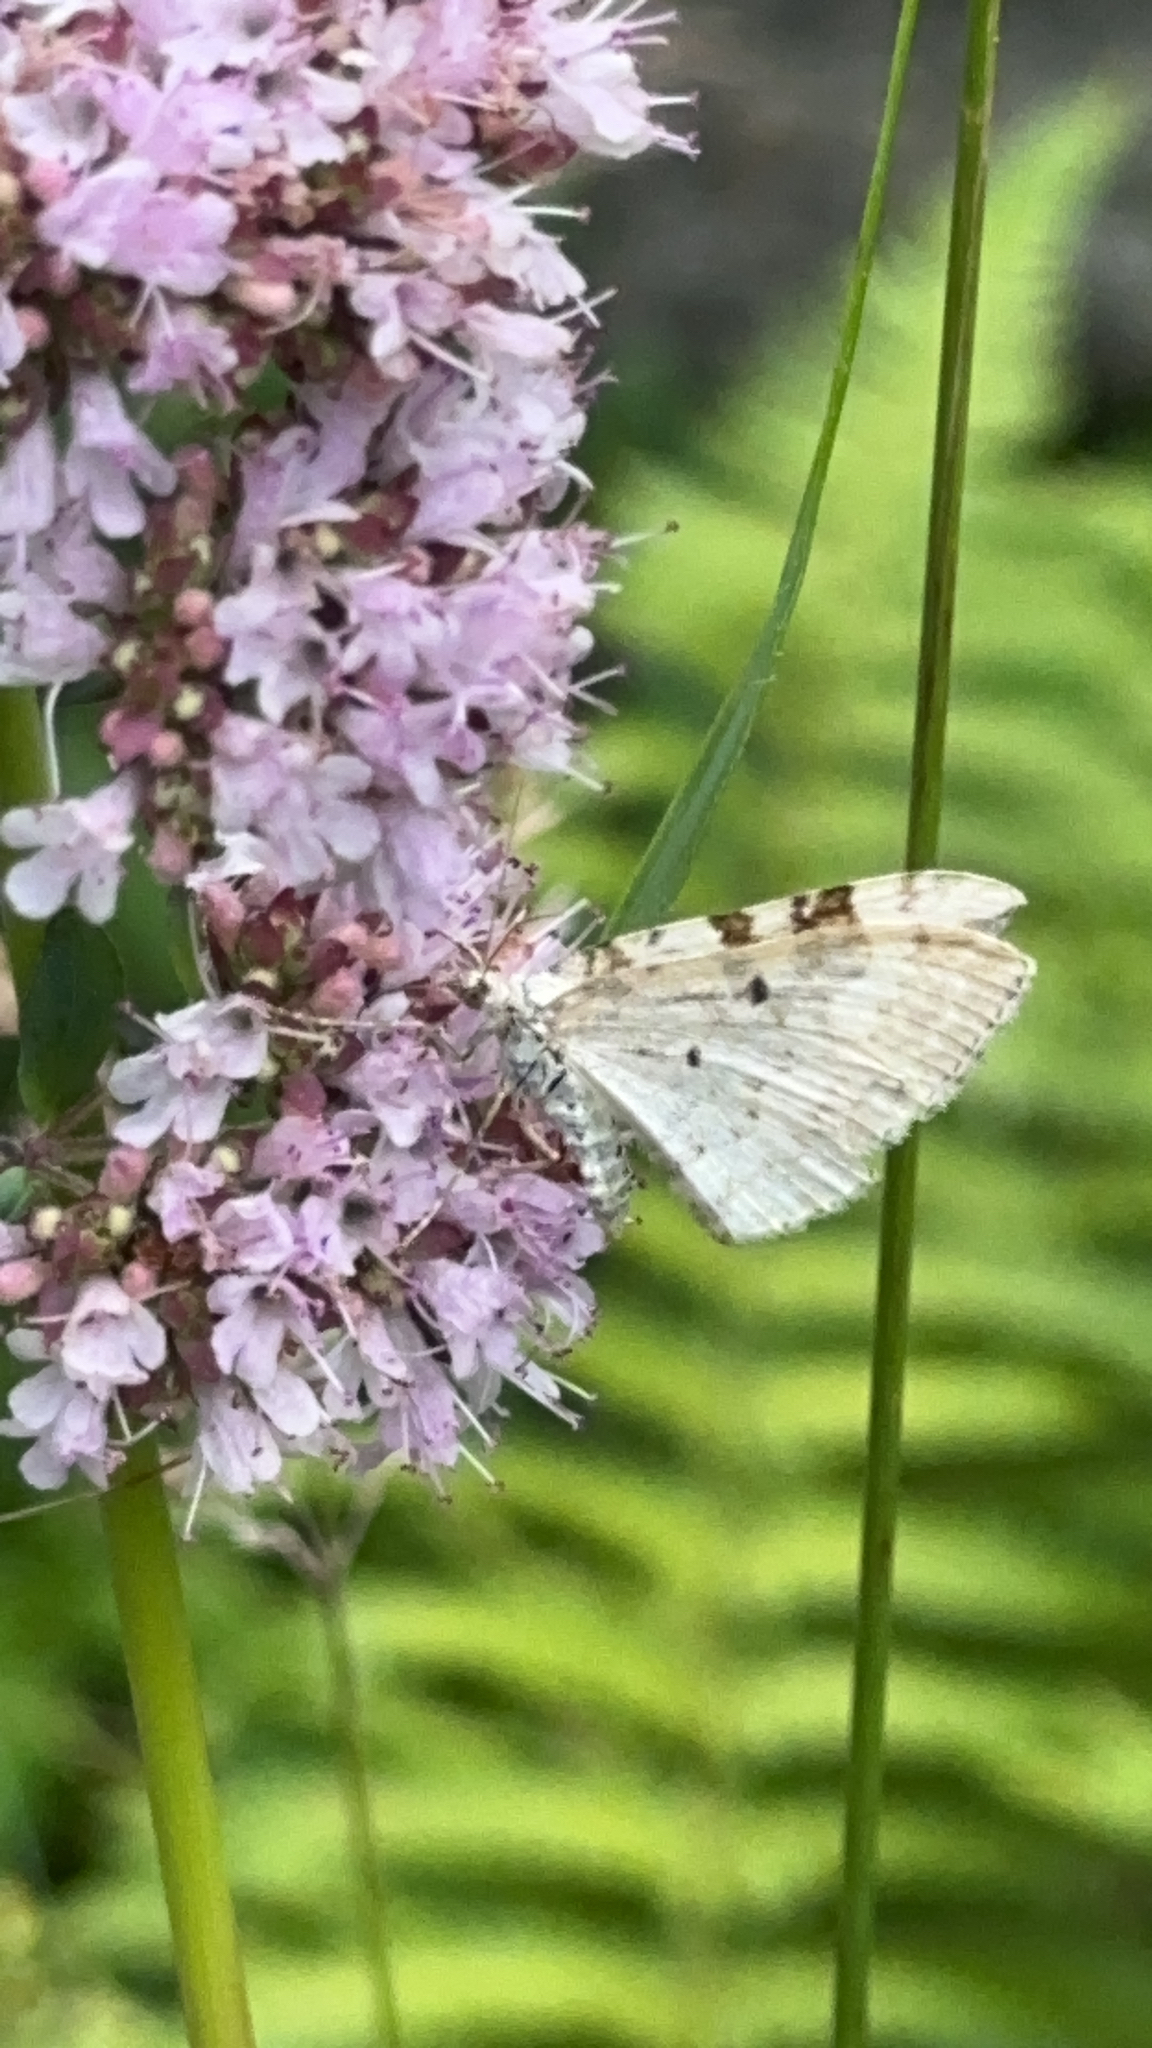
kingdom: Animalia
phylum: Arthropoda
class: Insecta
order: Lepidoptera
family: Geometridae
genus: Xanthorhoe
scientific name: Xanthorhoe montanata
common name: Silver-ground carpet
